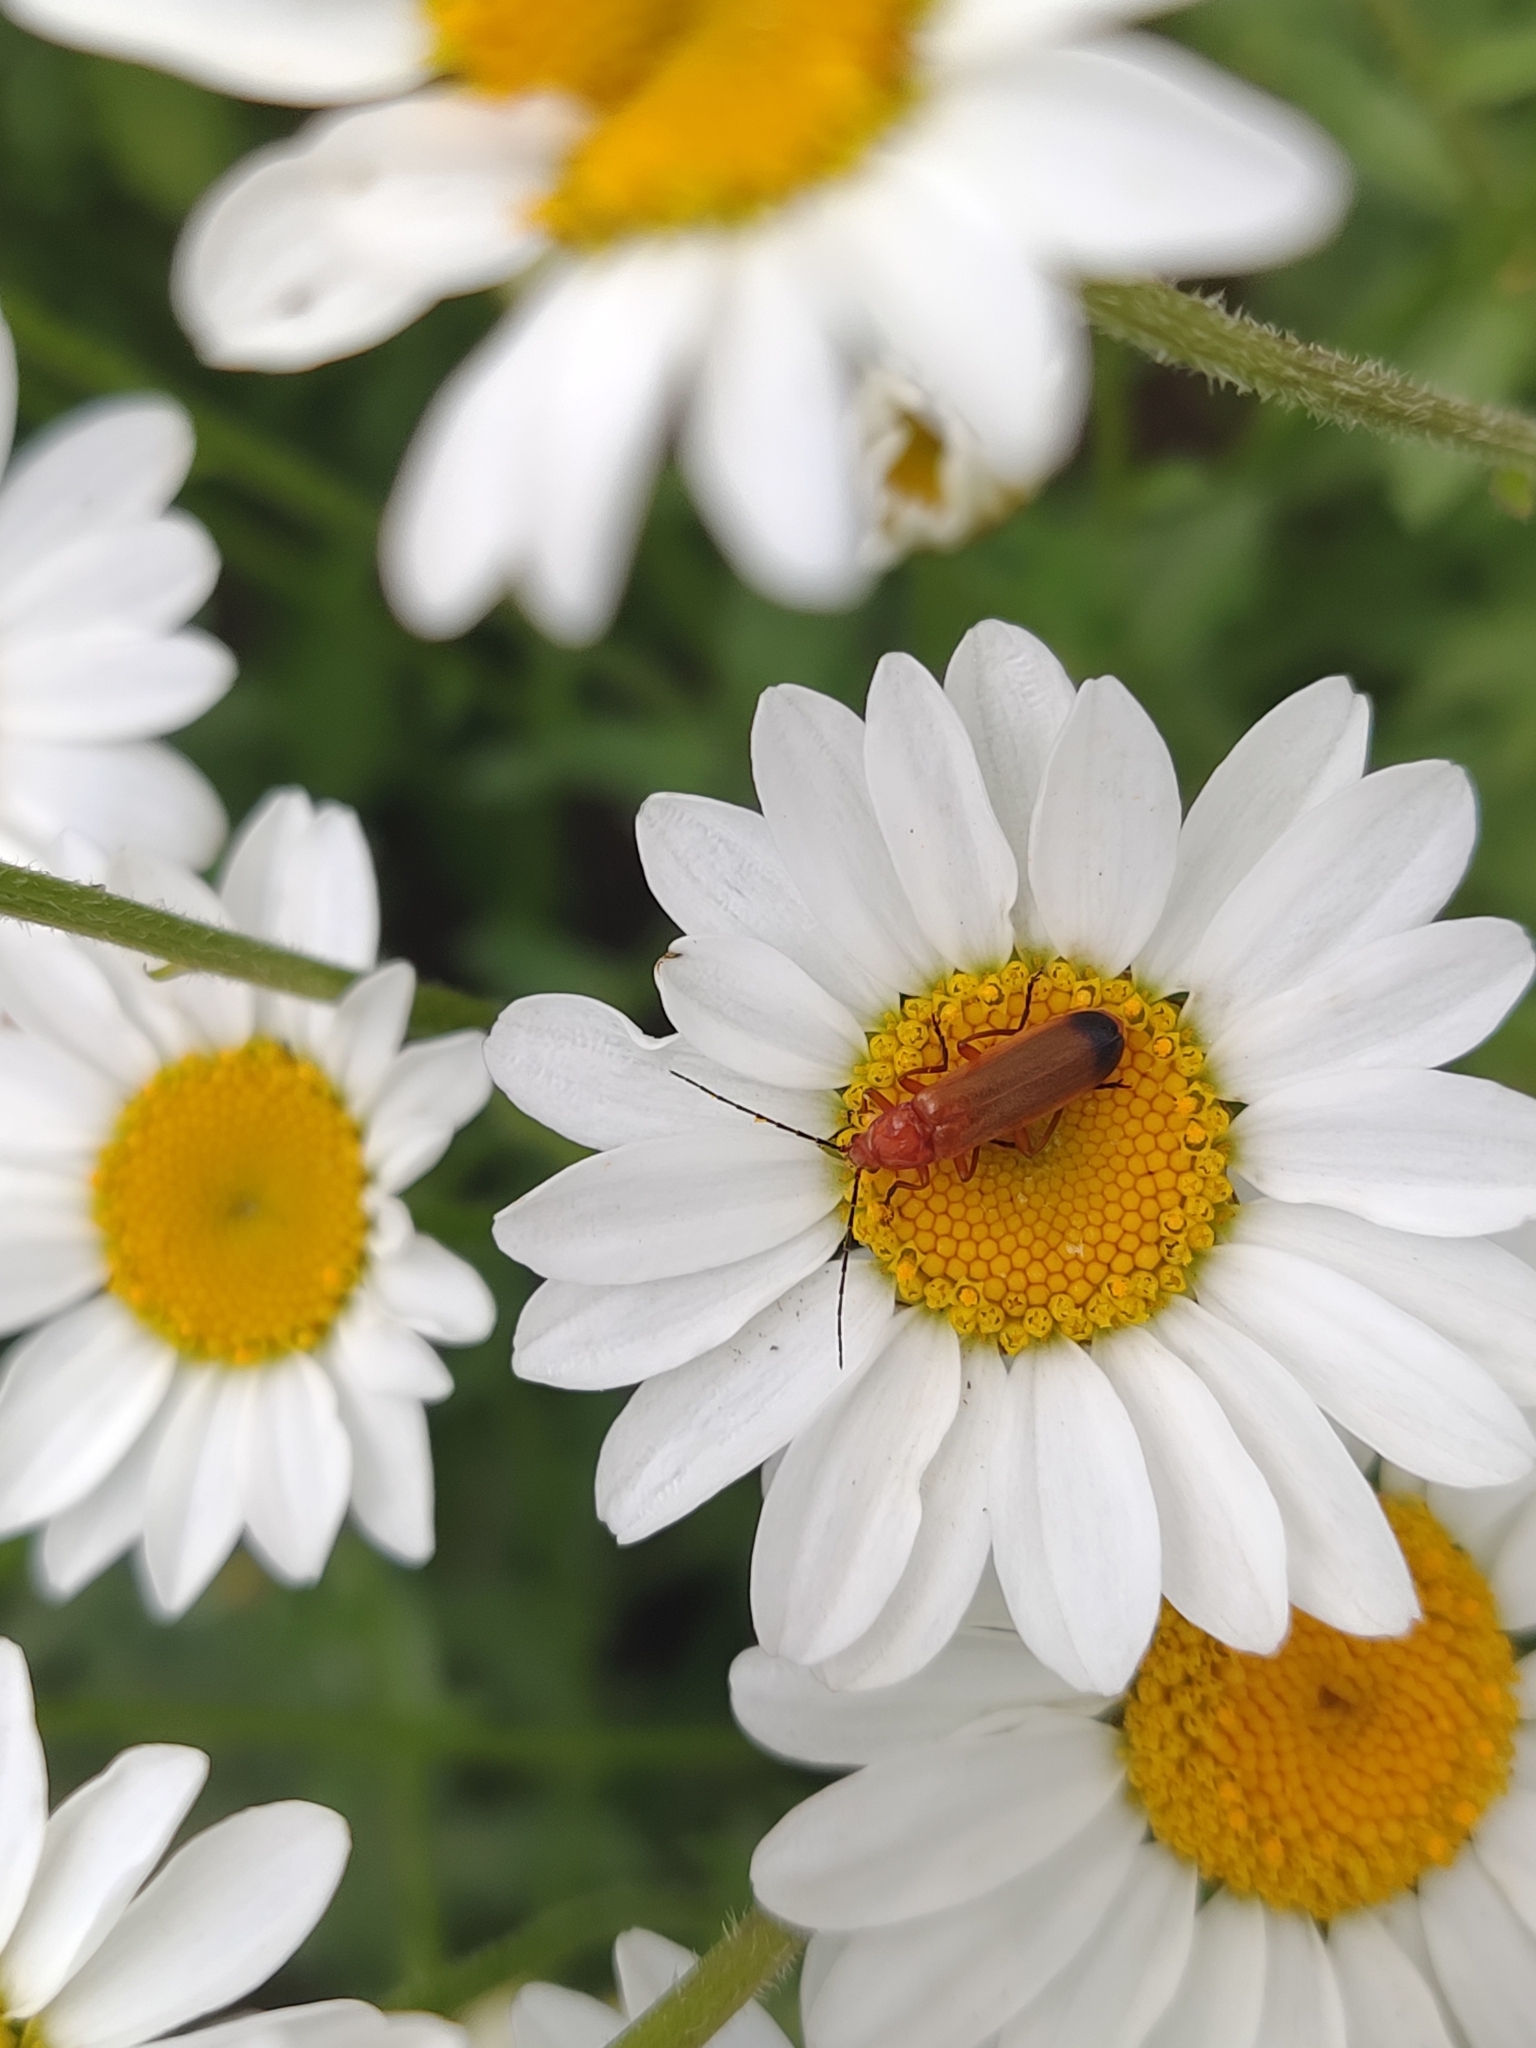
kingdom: Animalia
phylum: Arthropoda
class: Insecta
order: Coleoptera
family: Cantharidae
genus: Rhagonycha
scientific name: Rhagonycha fulva
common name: Common red soldier beetle
